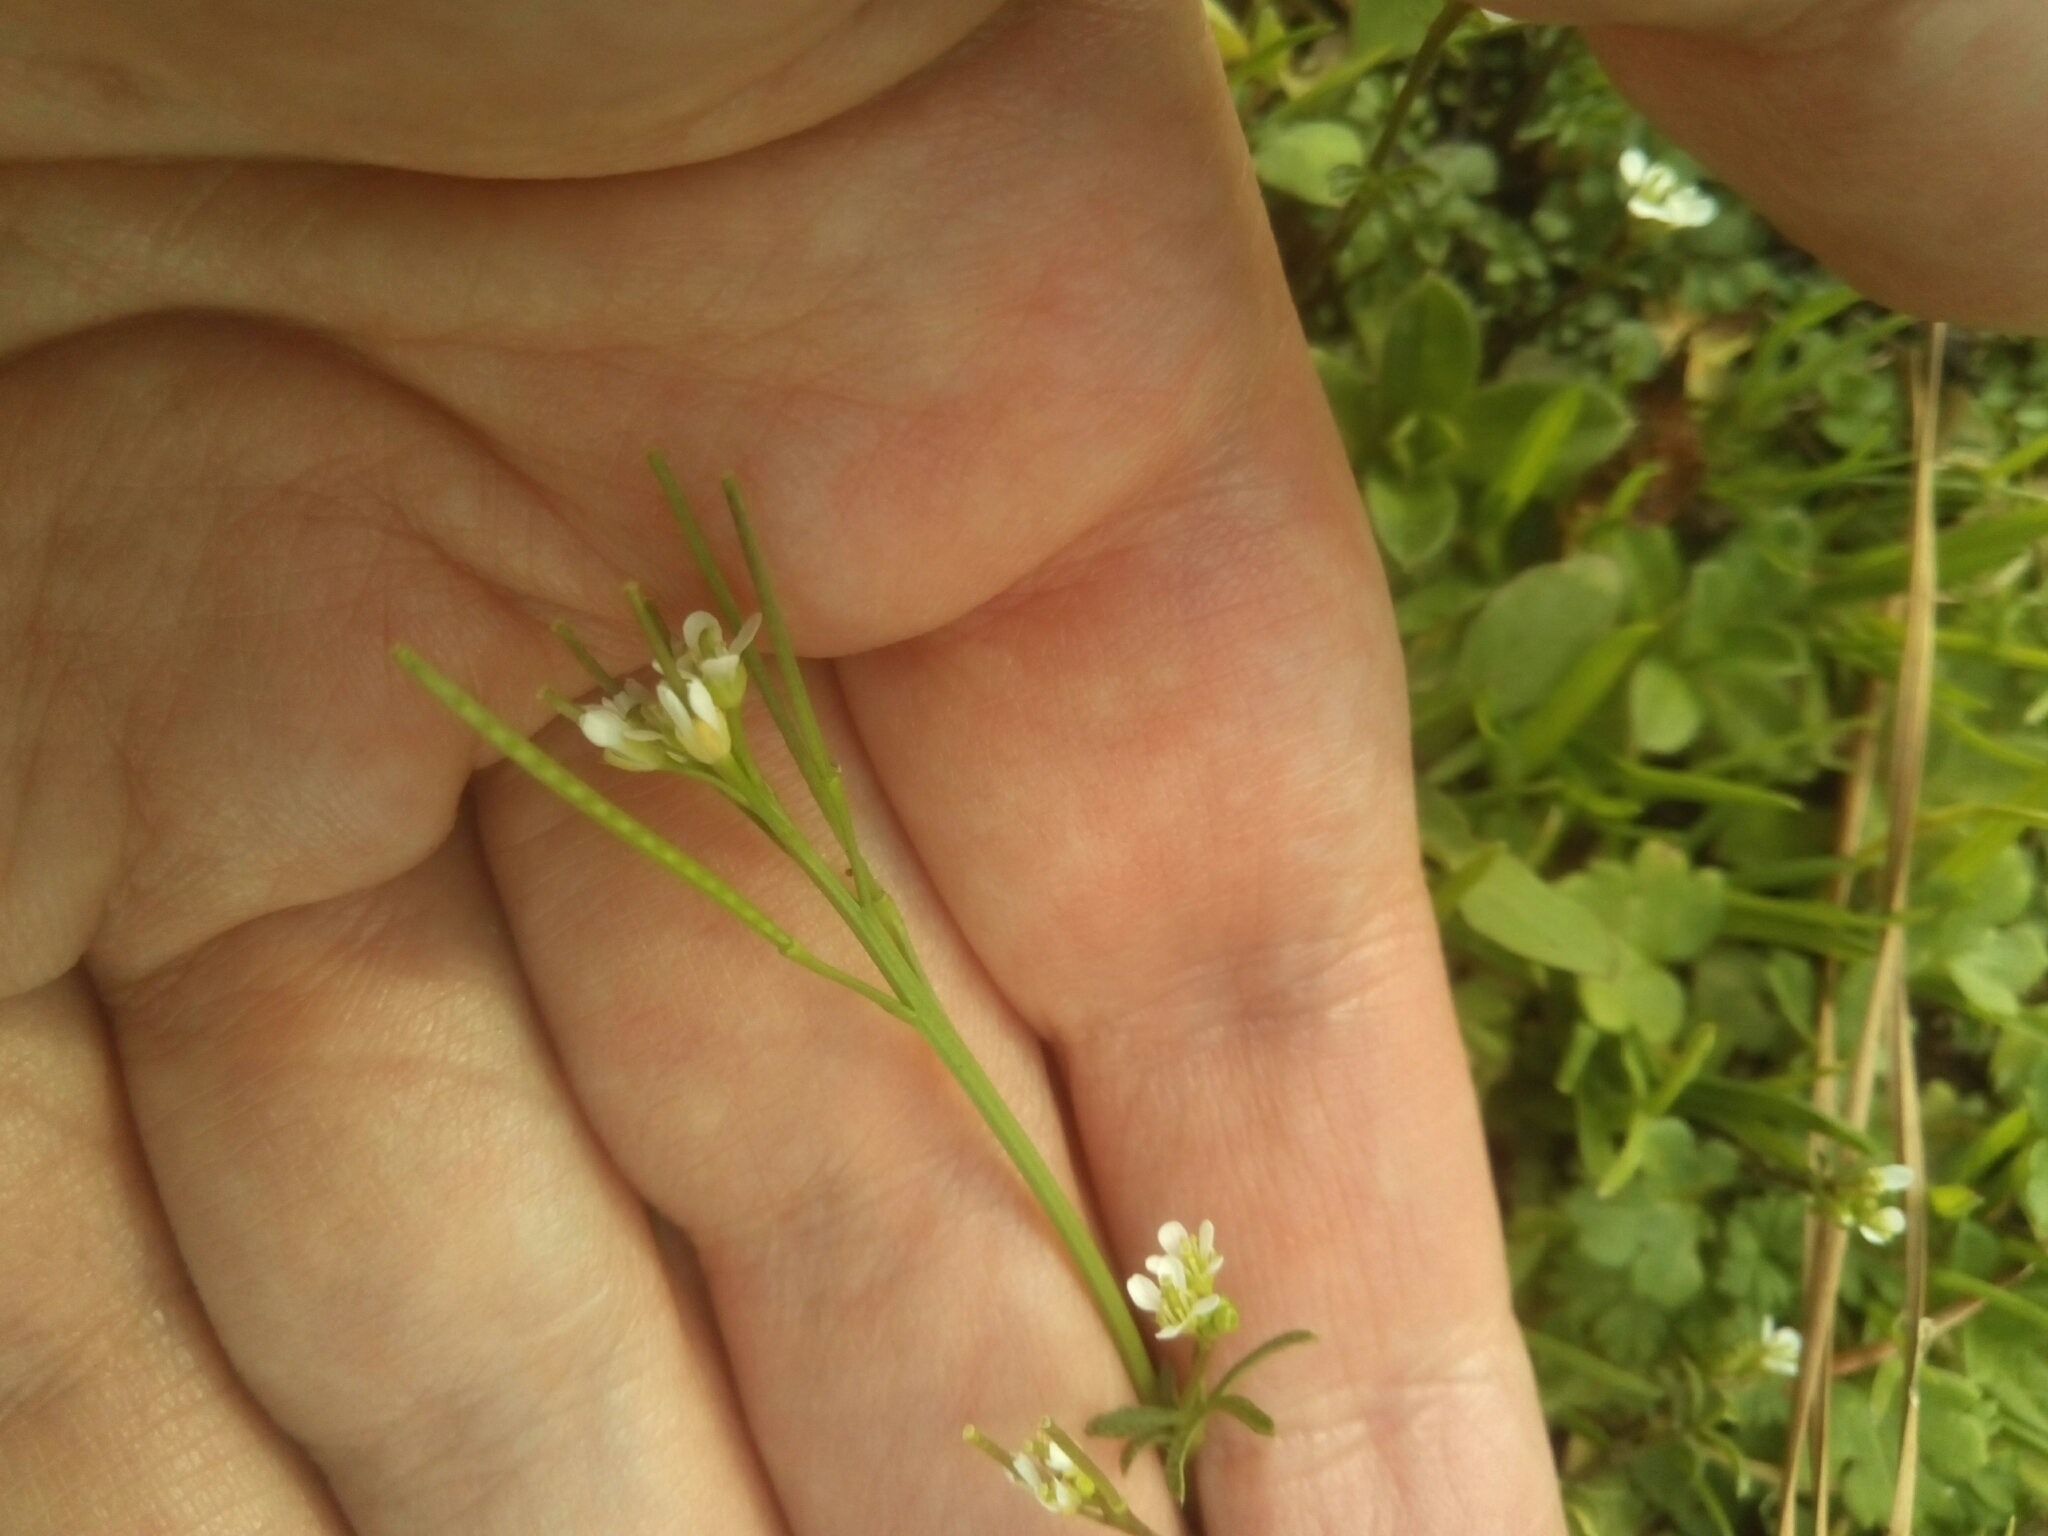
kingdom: Plantae
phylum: Tracheophyta
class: Magnoliopsida
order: Brassicales
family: Brassicaceae
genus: Cardamine
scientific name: Cardamine hirsuta
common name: Hairy bittercress
